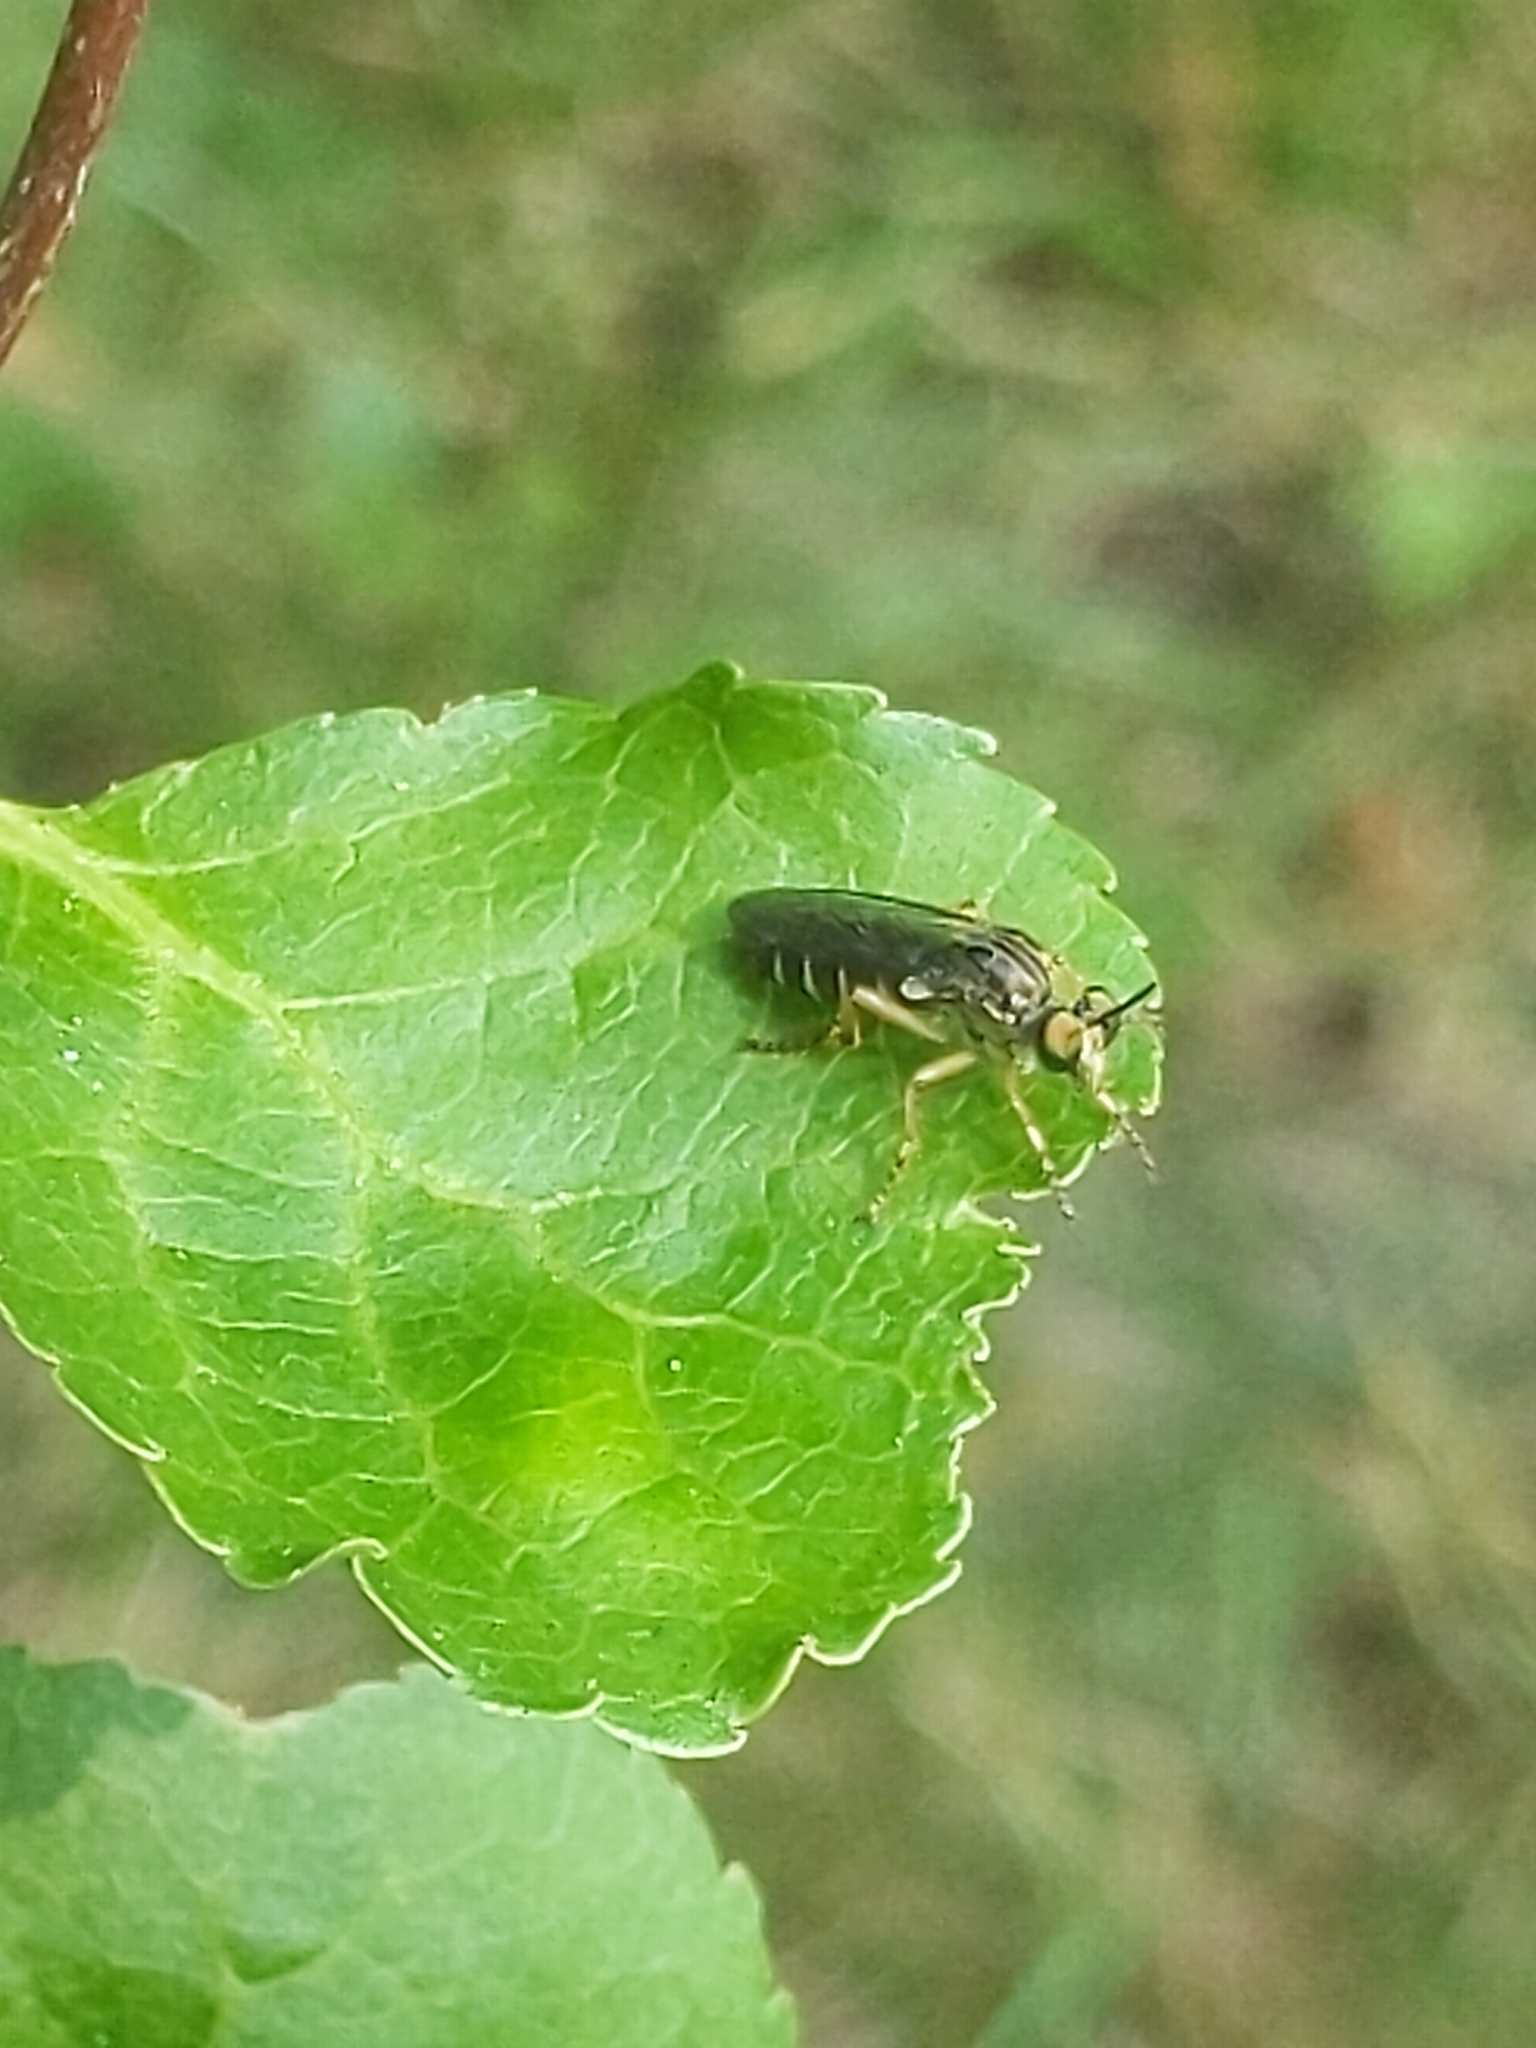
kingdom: Animalia
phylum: Arthropoda
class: Insecta
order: Diptera
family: Asilidae
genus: Taracticus
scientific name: Taracticus octopunctatus
